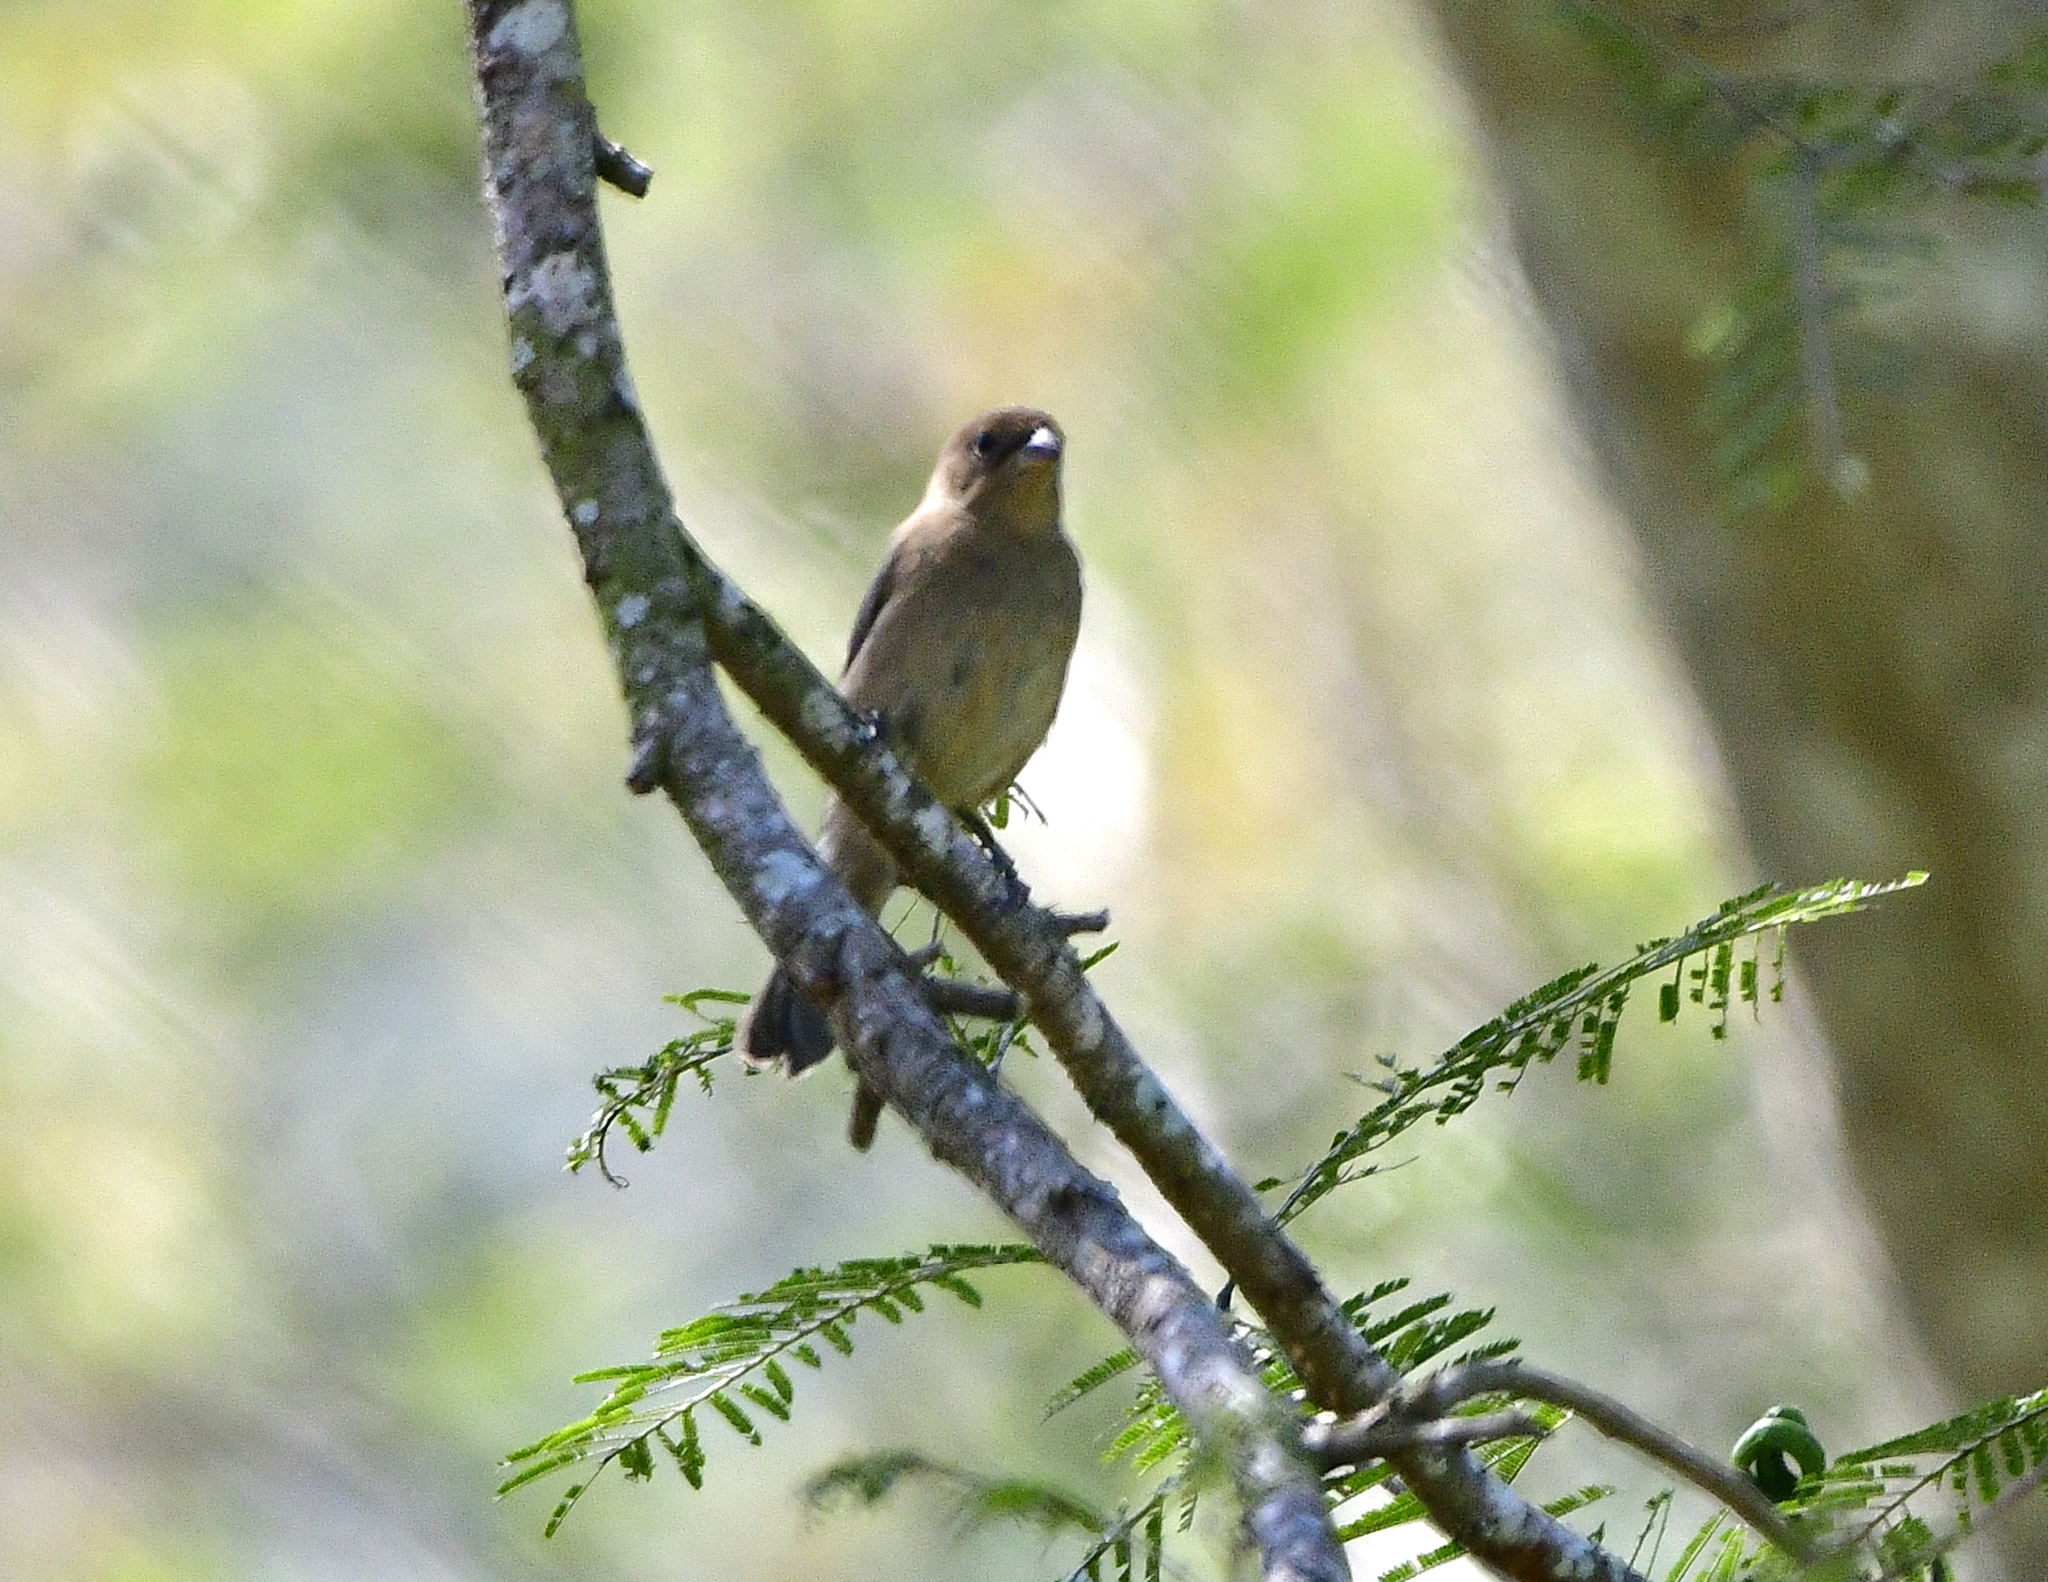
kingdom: Animalia
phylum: Chordata
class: Aves
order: Passeriformes
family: Cardinalidae
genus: Passerina
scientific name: Passerina leclancherii
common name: Orange-breasted bunting
